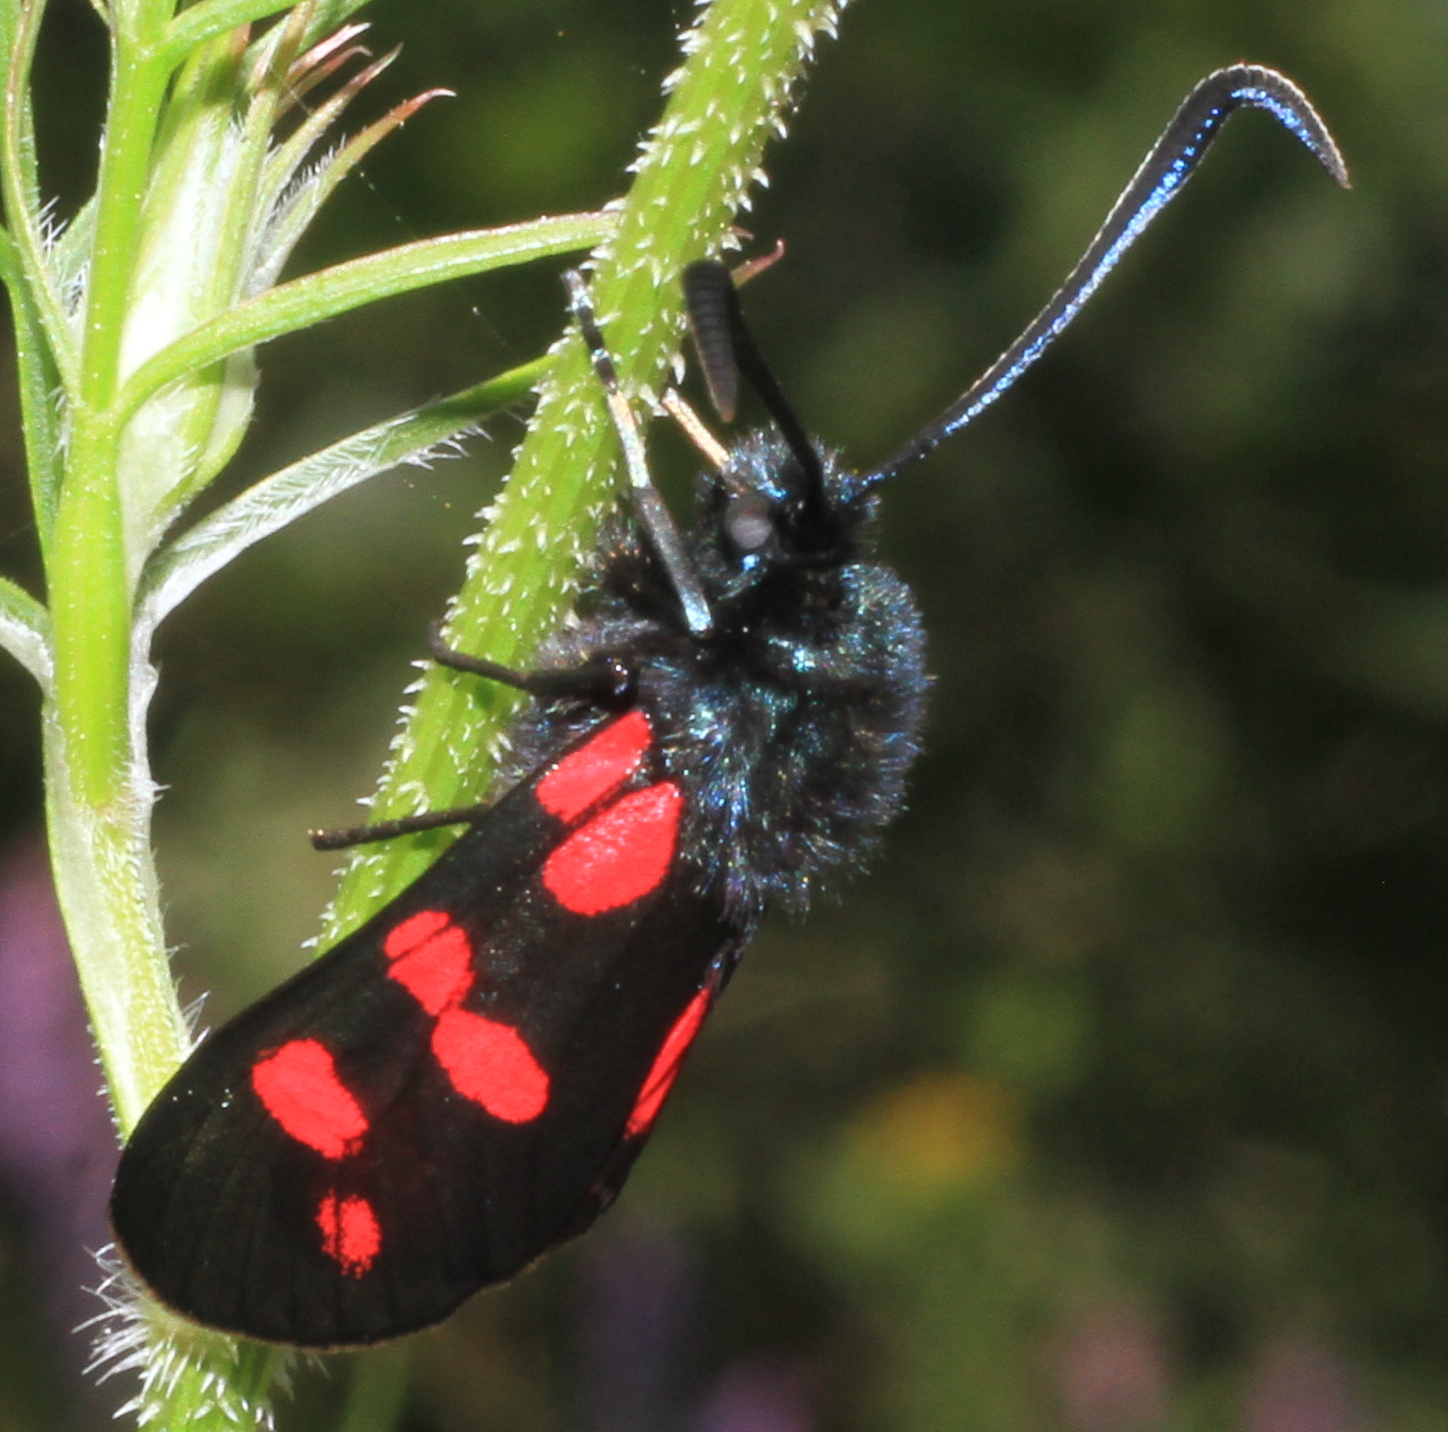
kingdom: Animalia
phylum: Arthropoda
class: Insecta
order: Lepidoptera
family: Zygaenidae
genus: Zygaena
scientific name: Zygaena filipendulae
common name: Six-spot burnet
